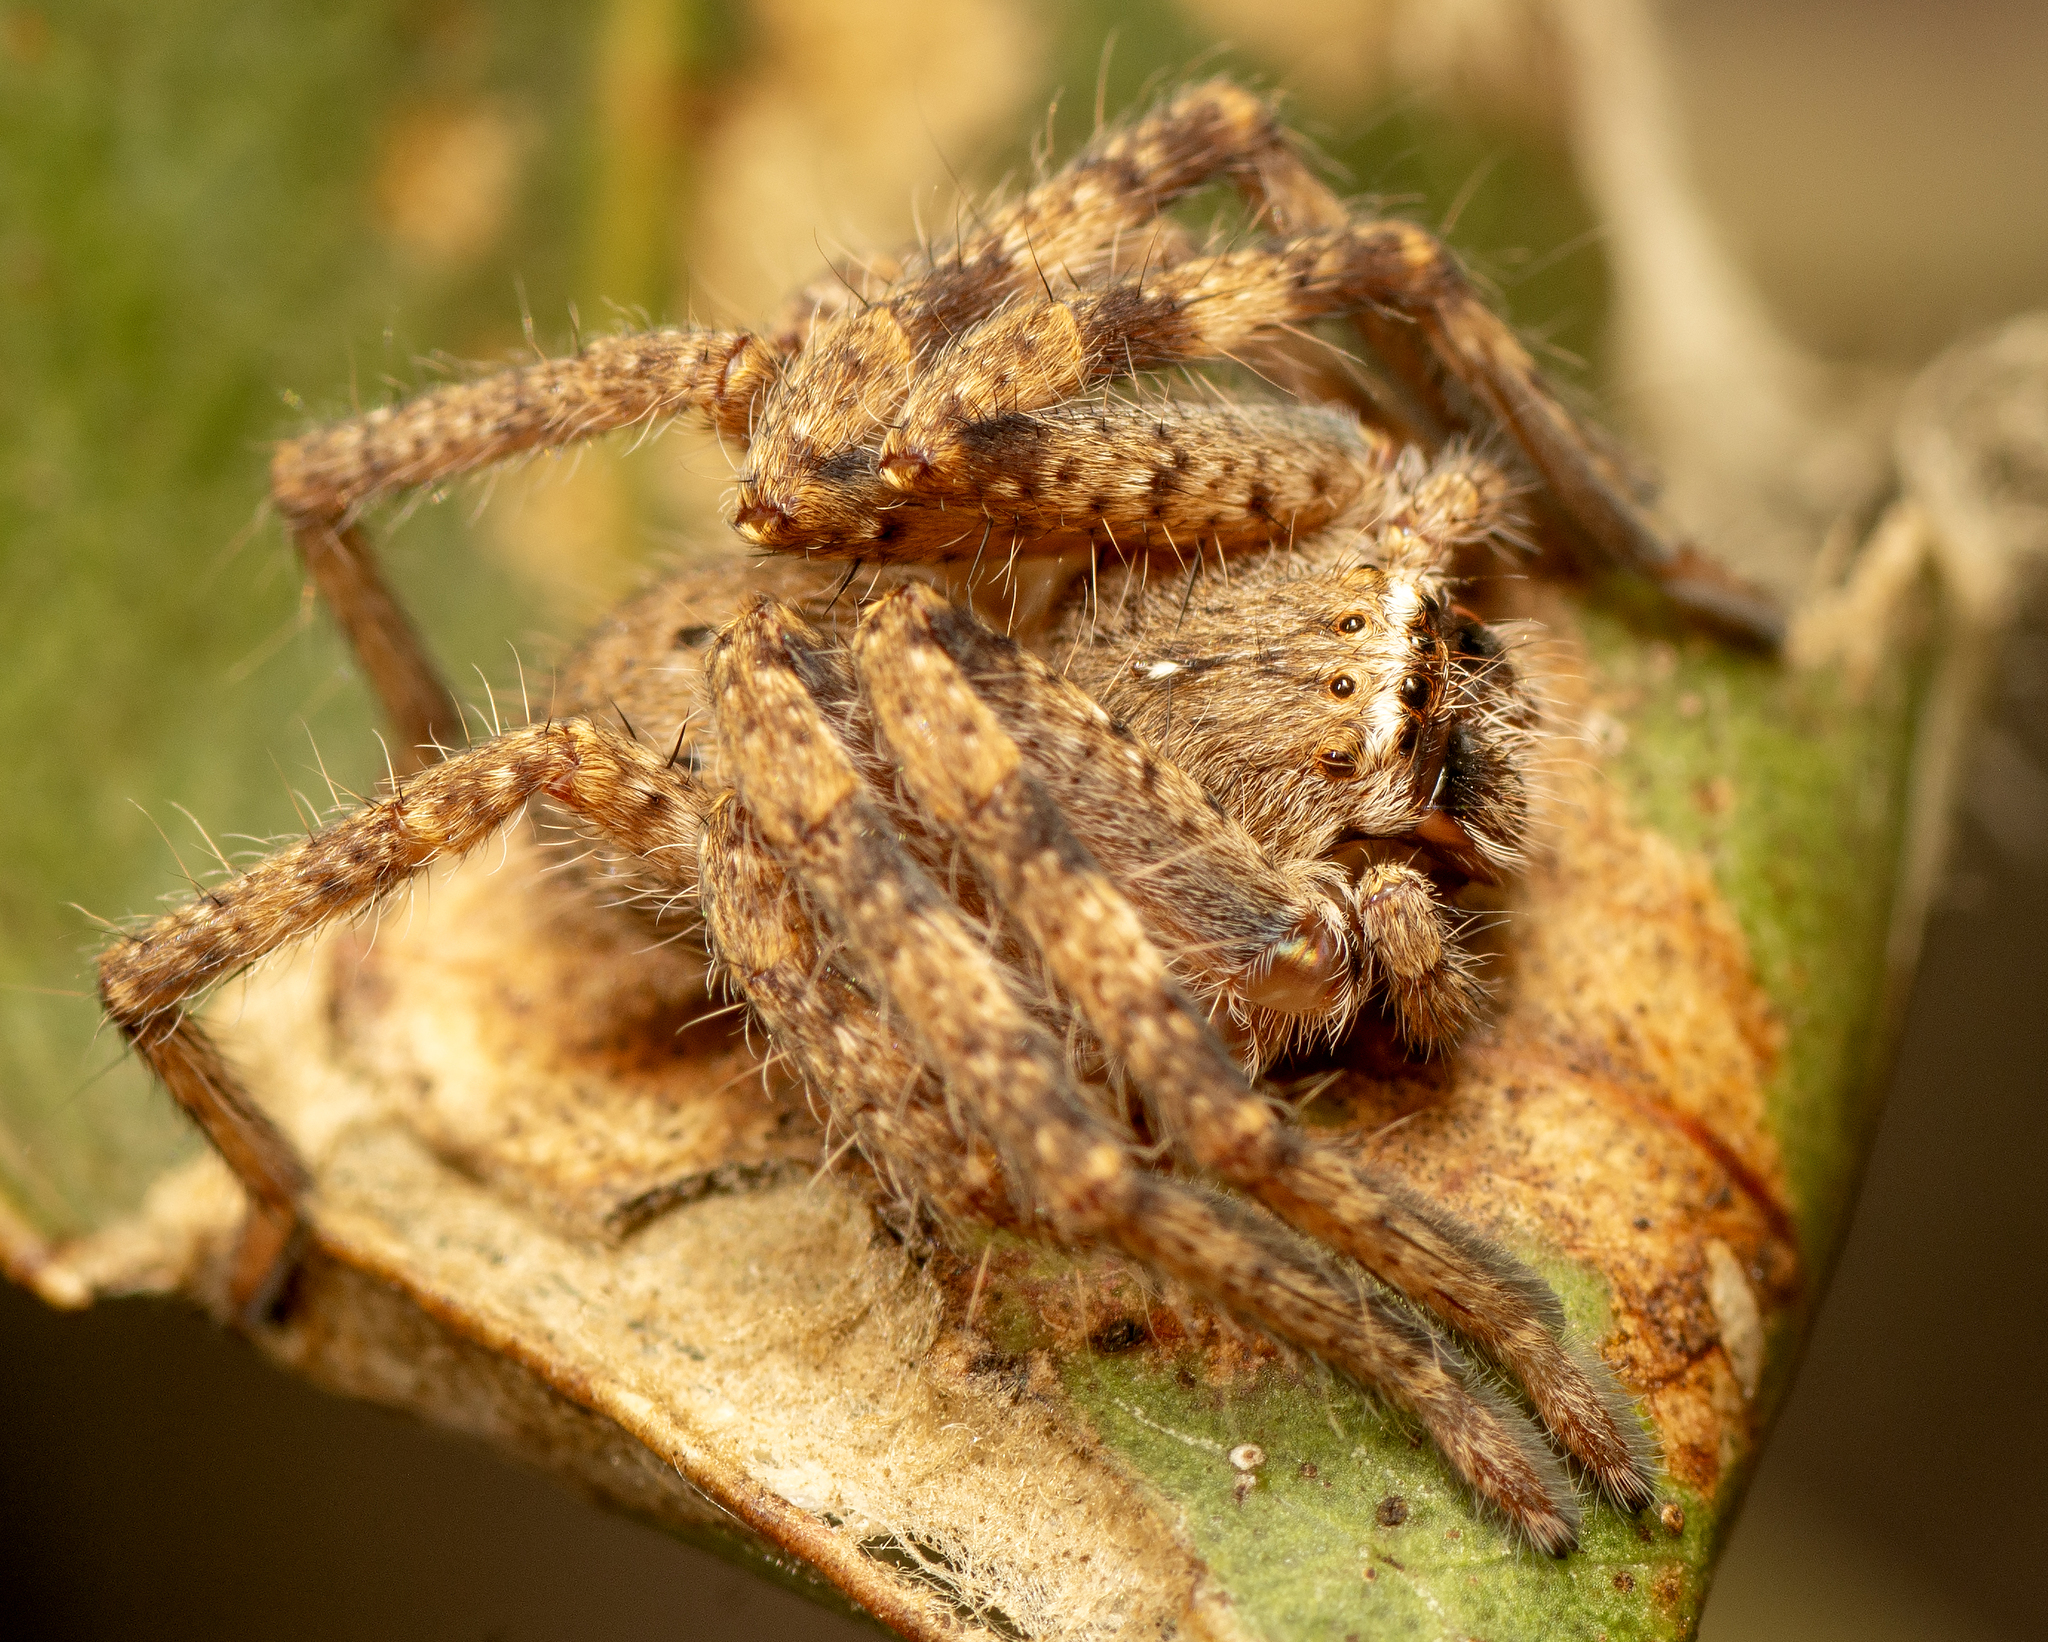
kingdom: Animalia
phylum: Arthropoda
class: Arachnida
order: Araneae
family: Sparassidae
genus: Isopedella
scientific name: Isopedella pessleri
